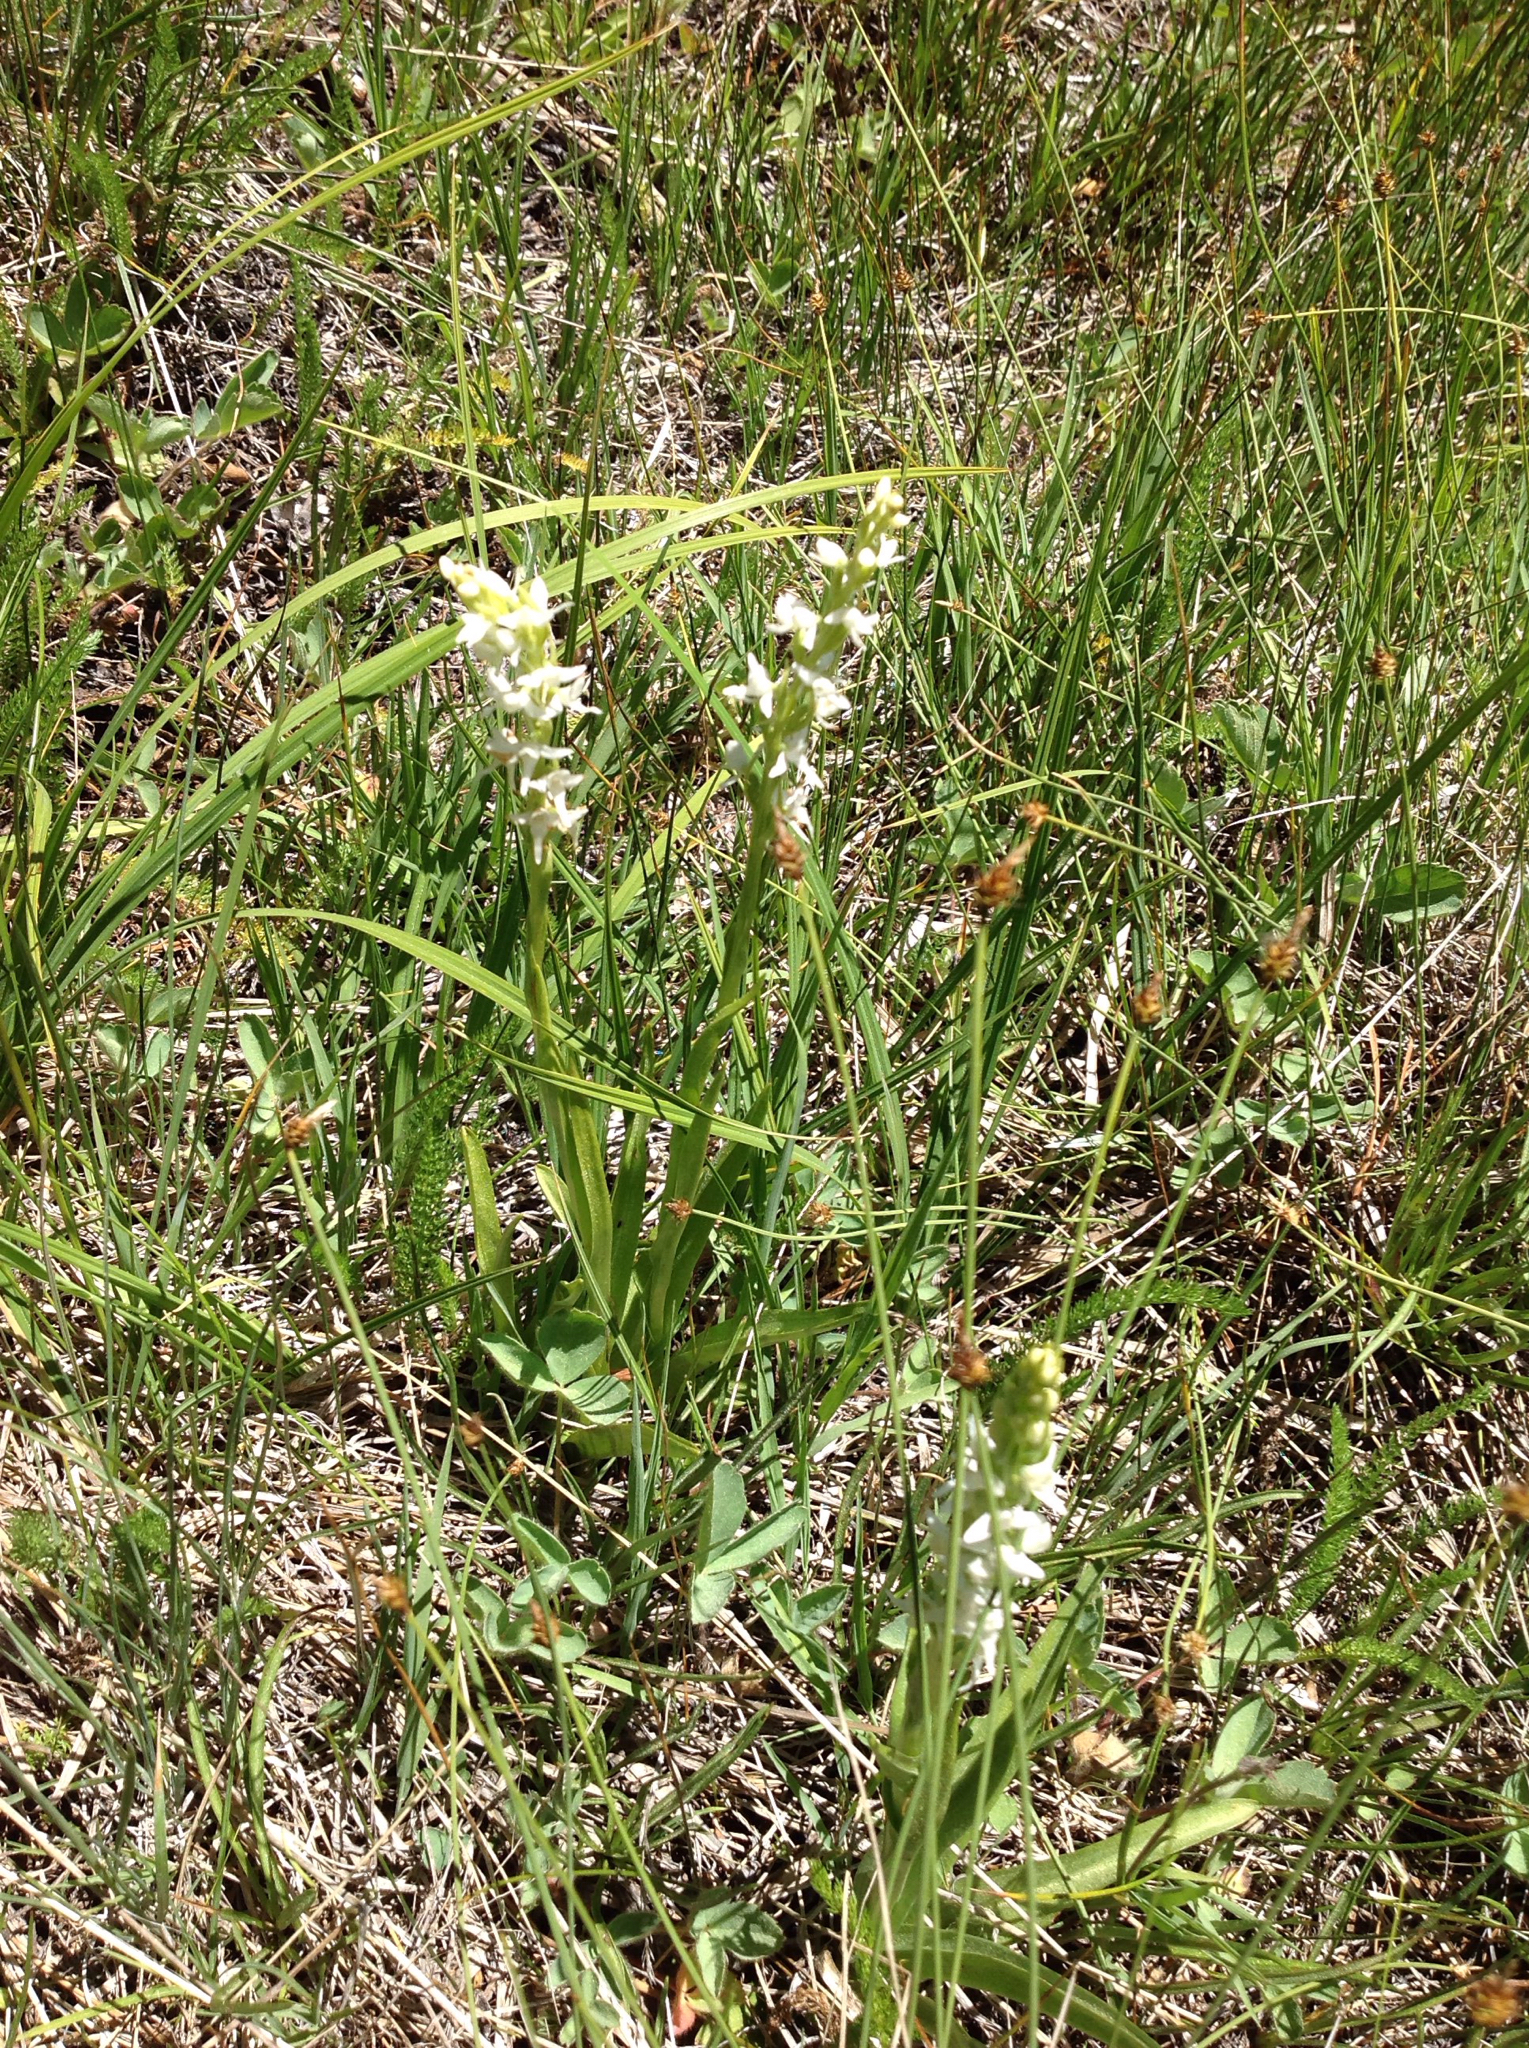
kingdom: Plantae
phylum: Tracheophyta
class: Liliopsida
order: Asparagales
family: Orchidaceae
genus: Platanthera
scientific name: Platanthera dilatata
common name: Bog candles
